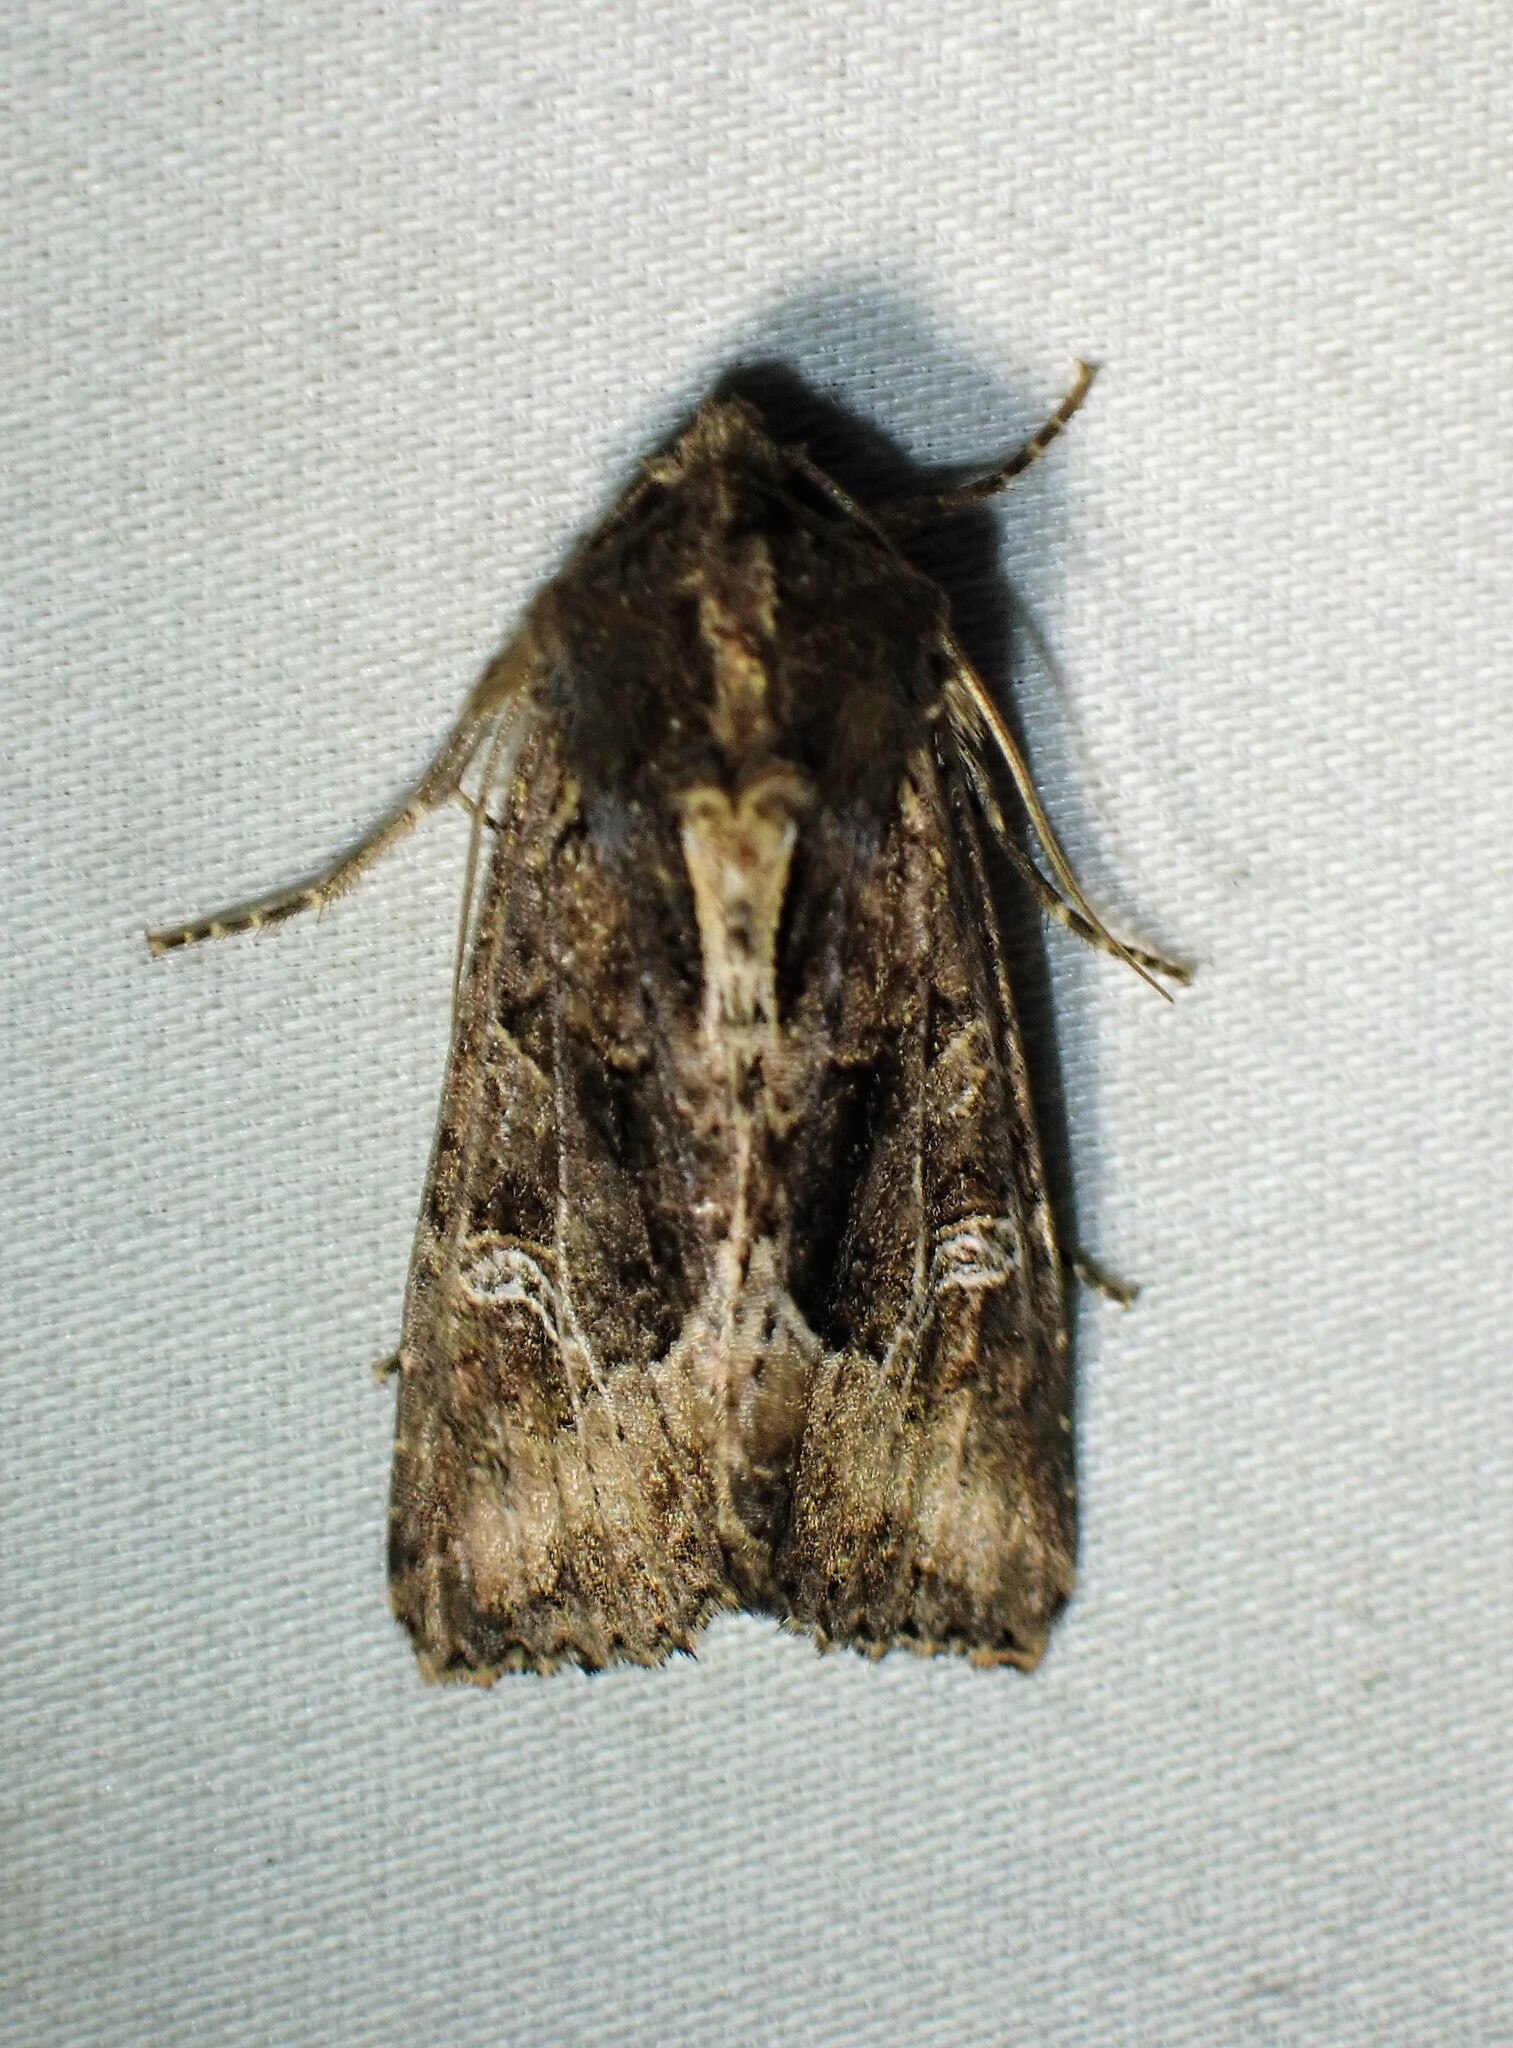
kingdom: Animalia
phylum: Arthropoda
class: Insecta
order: Lepidoptera
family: Noctuidae
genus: Helotropha
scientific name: Helotropha reniformis
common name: Kidney-spotted rustic moth
